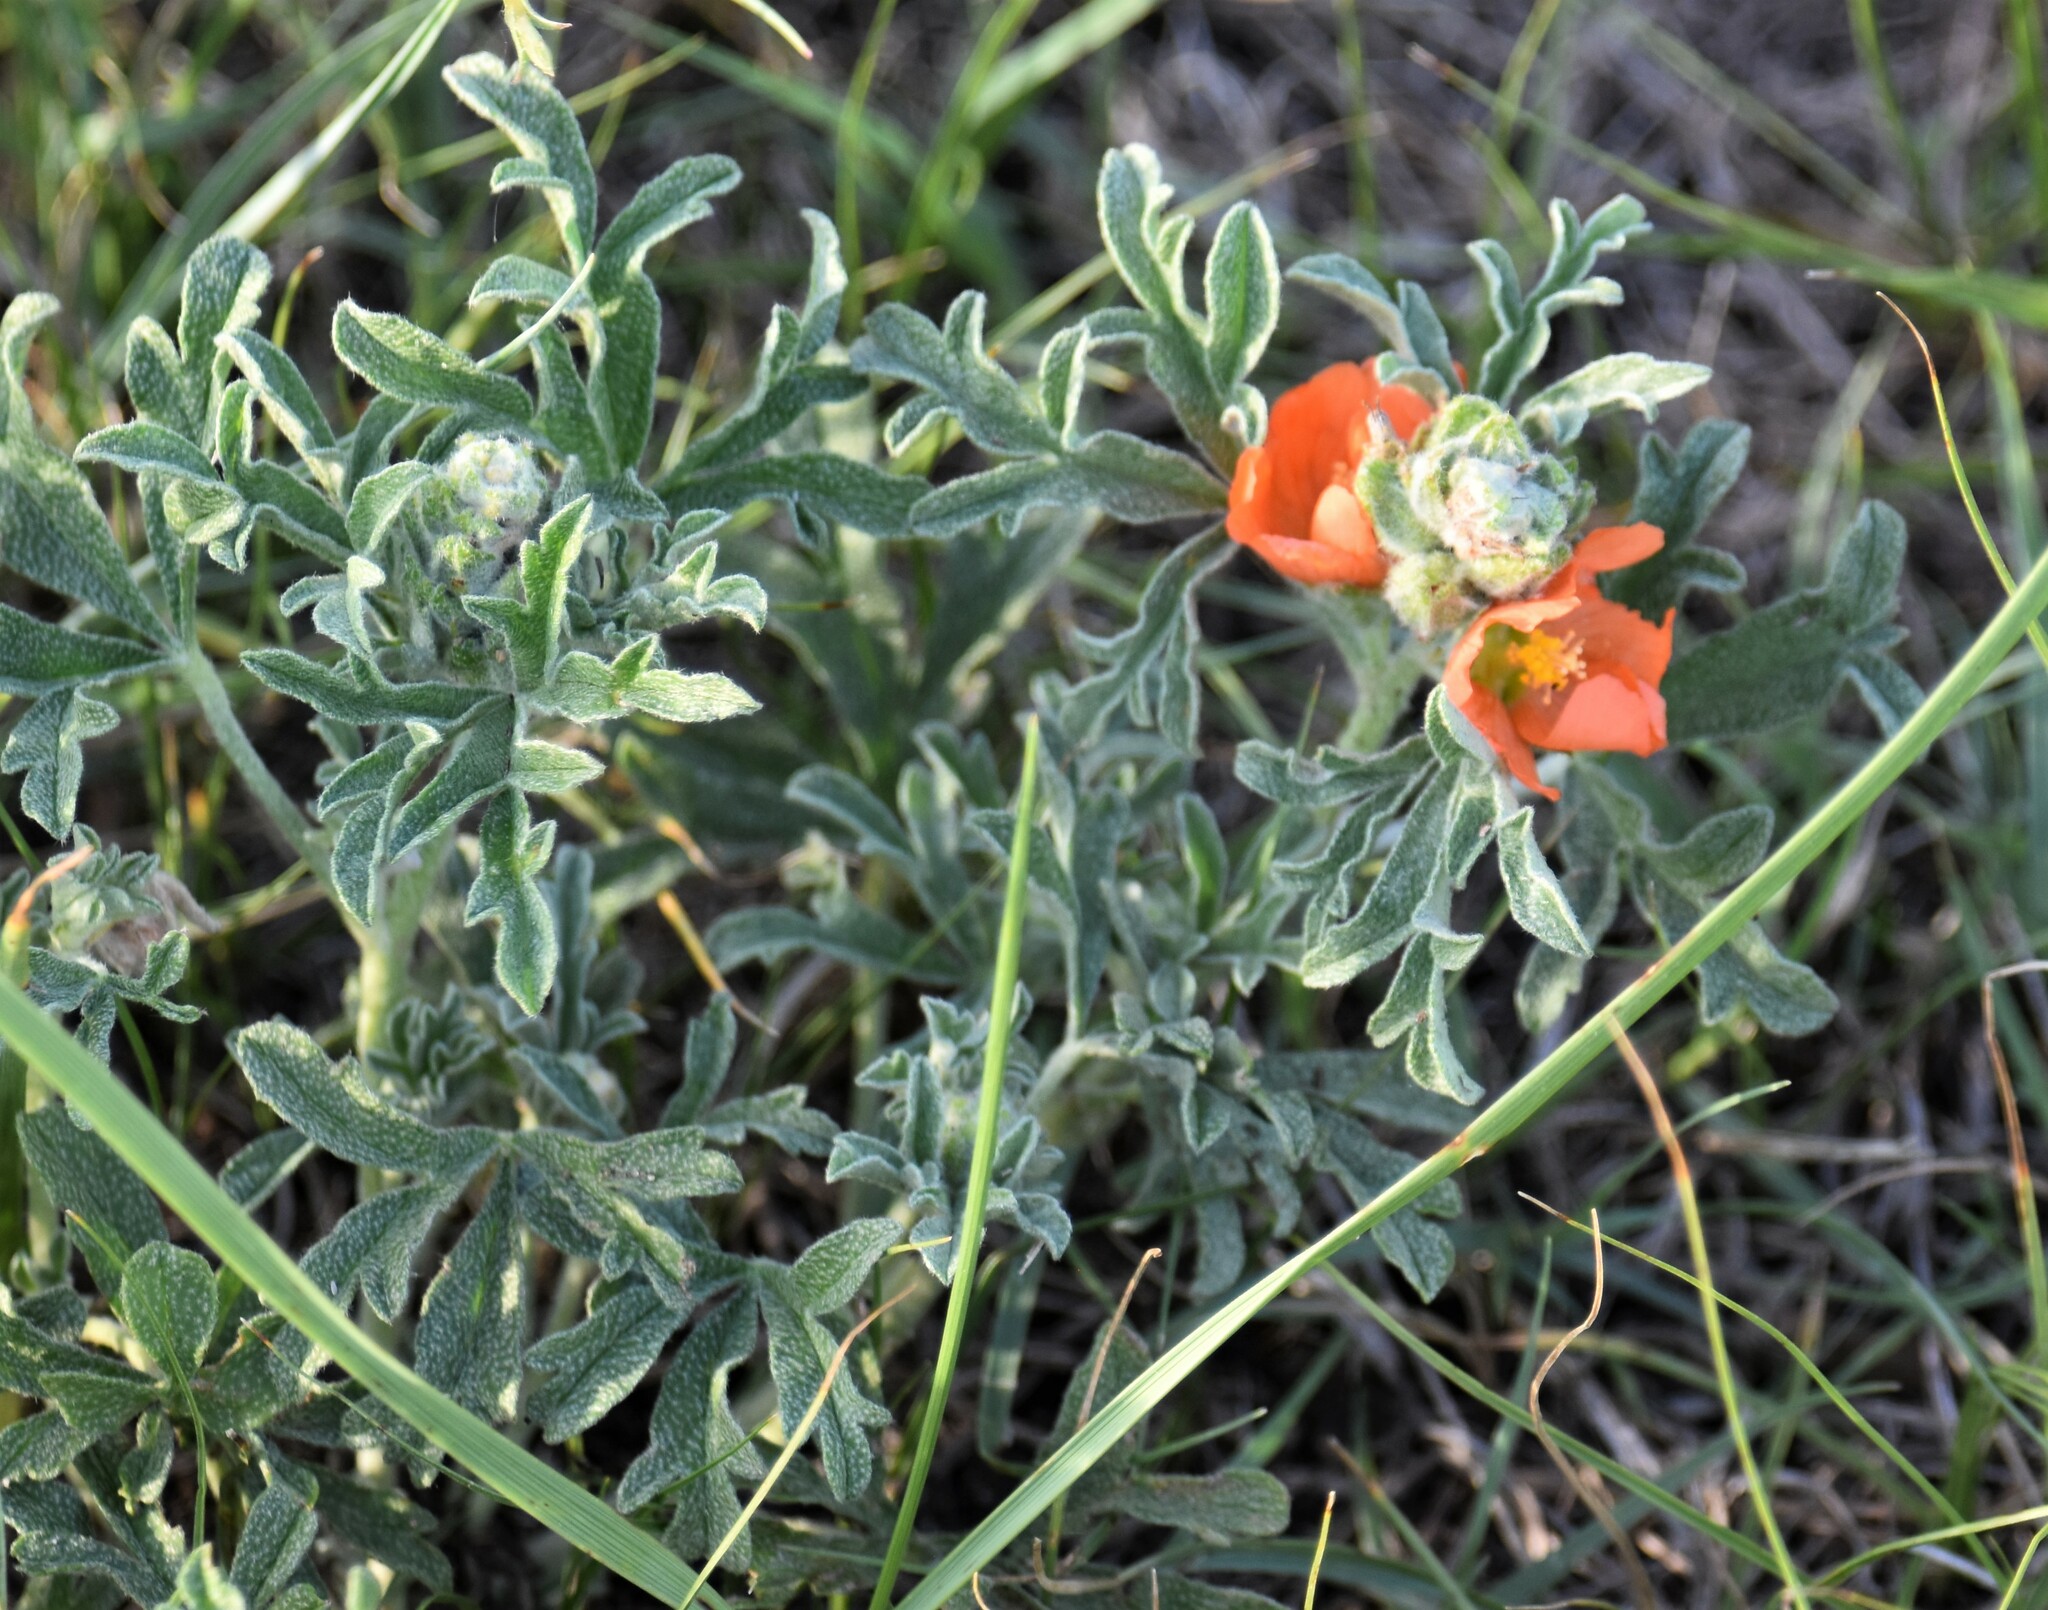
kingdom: Plantae
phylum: Tracheophyta
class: Magnoliopsida
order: Malvales
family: Malvaceae
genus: Sphaeralcea
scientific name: Sphaeralcea coccinea
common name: Moss-rose
